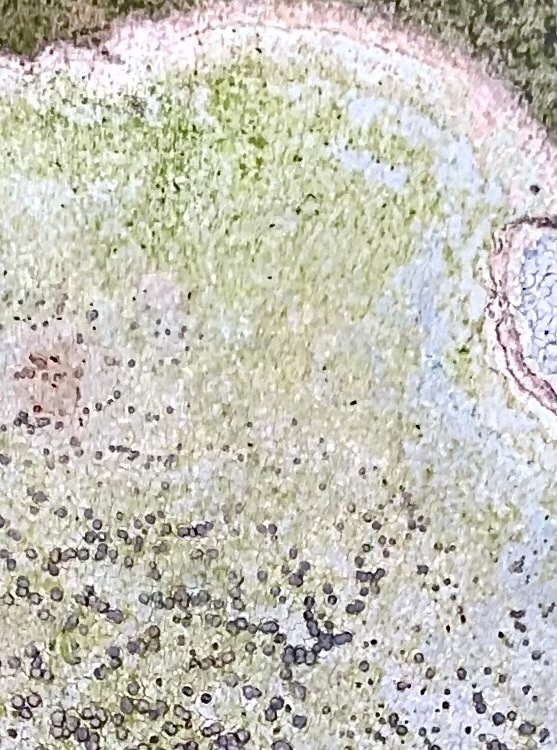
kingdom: Fungi
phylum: Ascomycota
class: Lecanoromycetes
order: Lecideales
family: Lecideaceae
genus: Porpidia
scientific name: Porpidia albocaerulescens
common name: Smokey-eyed boulder lichen
